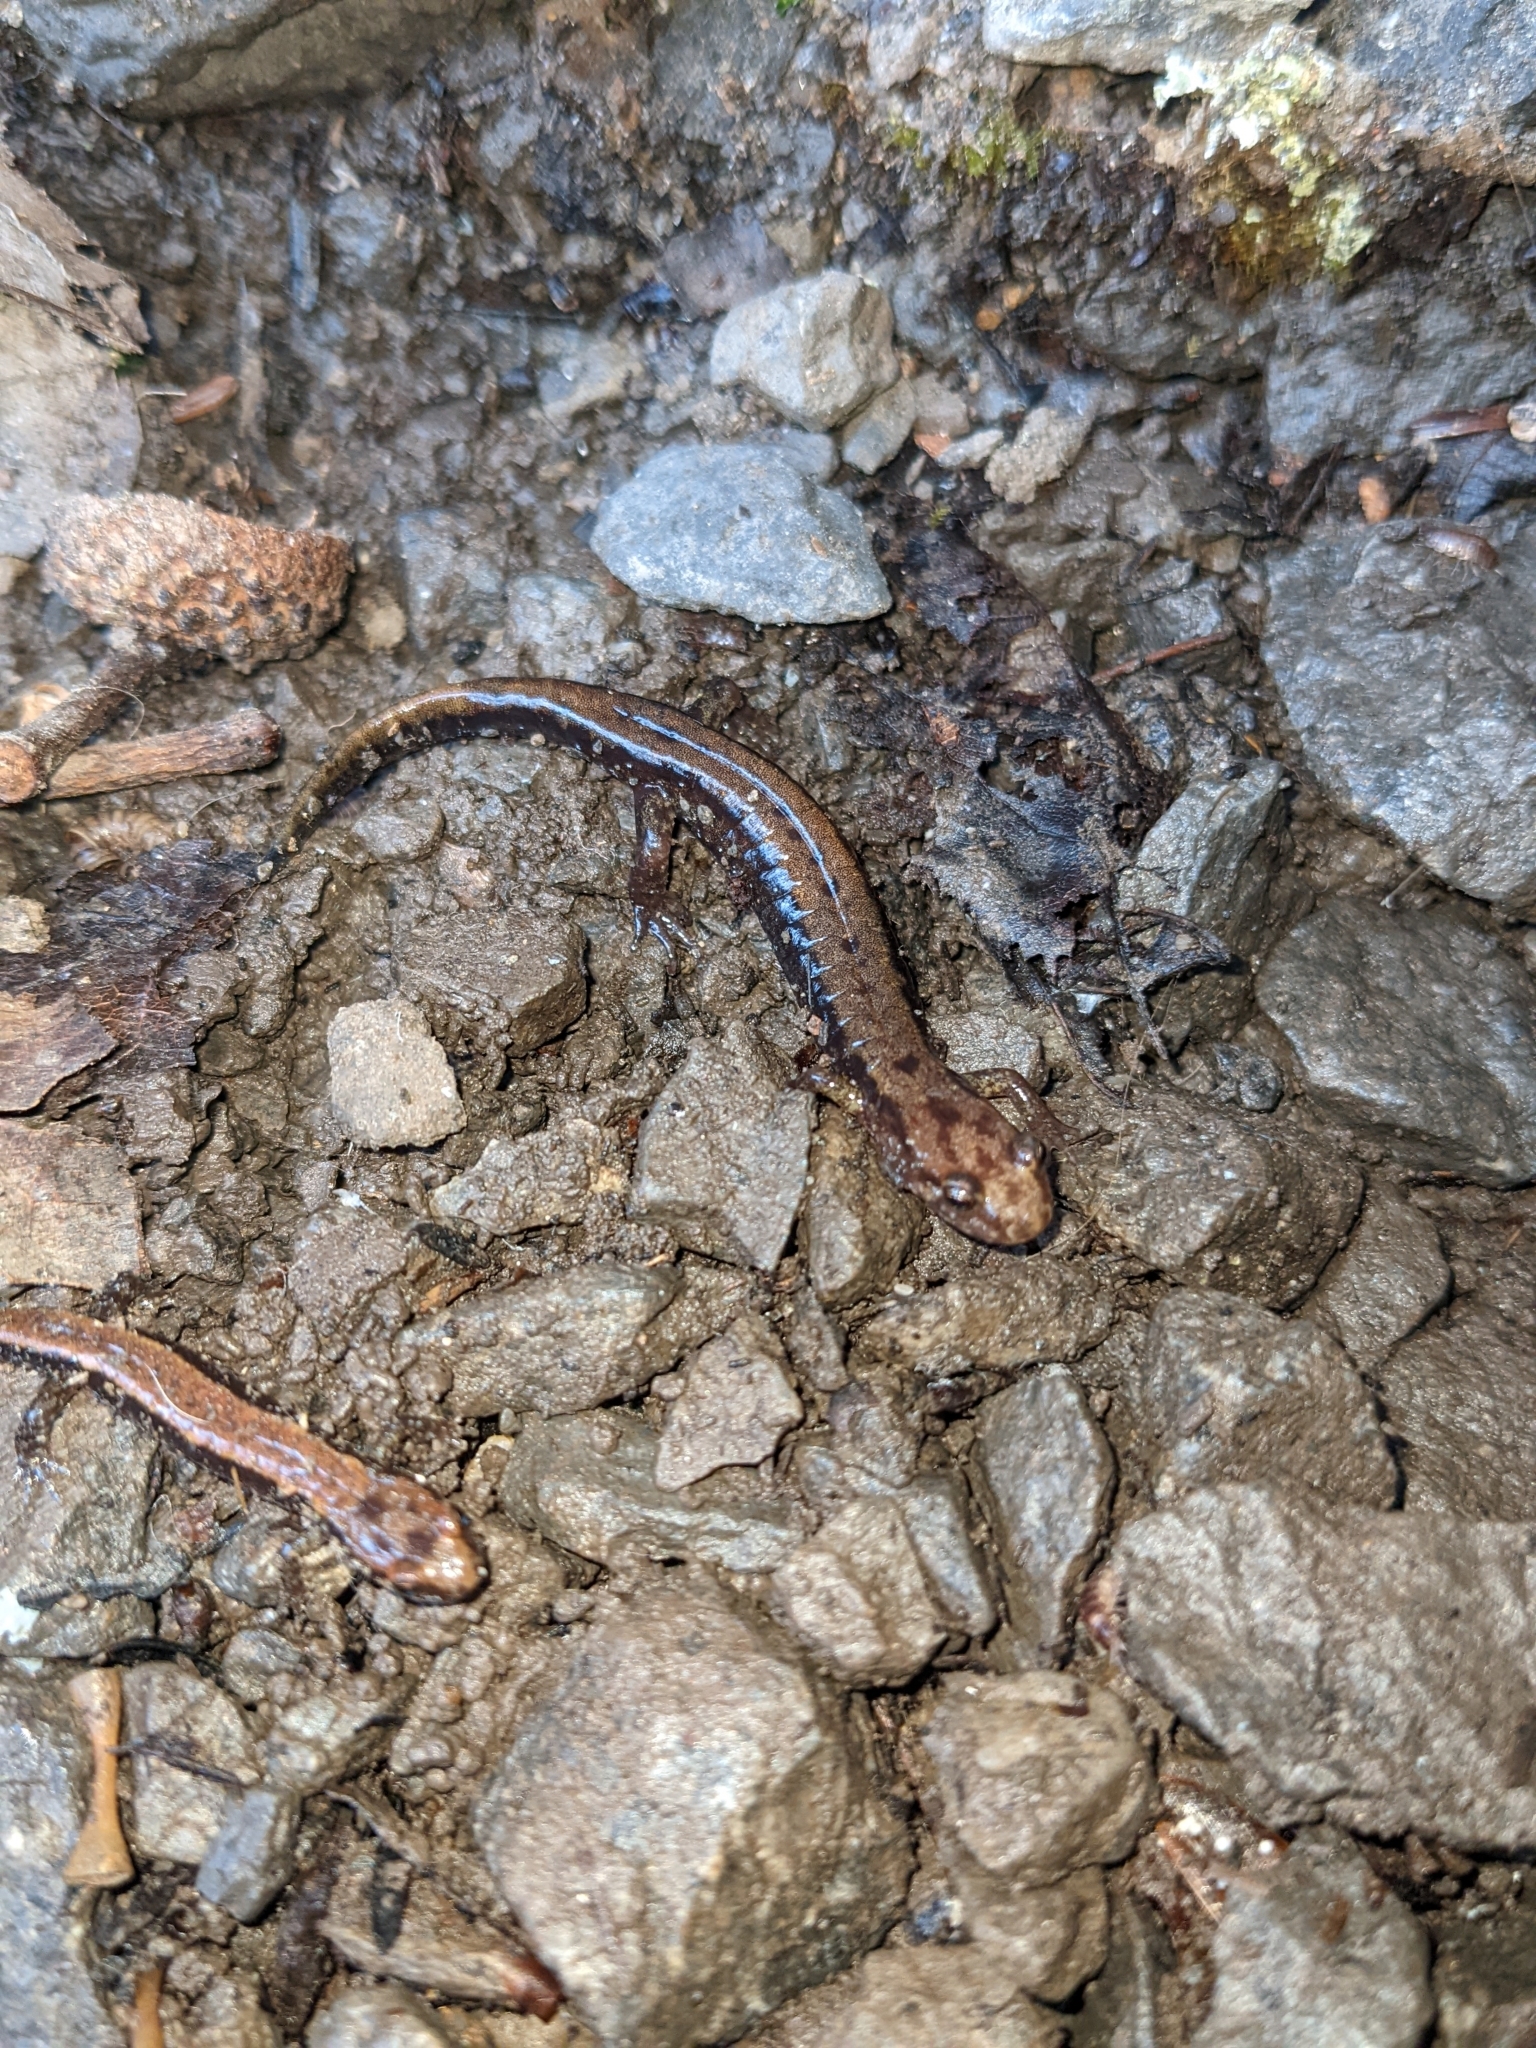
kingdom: Animalia
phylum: Chordata
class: Amphibia
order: Caudata
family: Plethodontidae
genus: Desmognathus
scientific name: Desmognathus ochrophaeus
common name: Allegheny mountain dusky salamander
